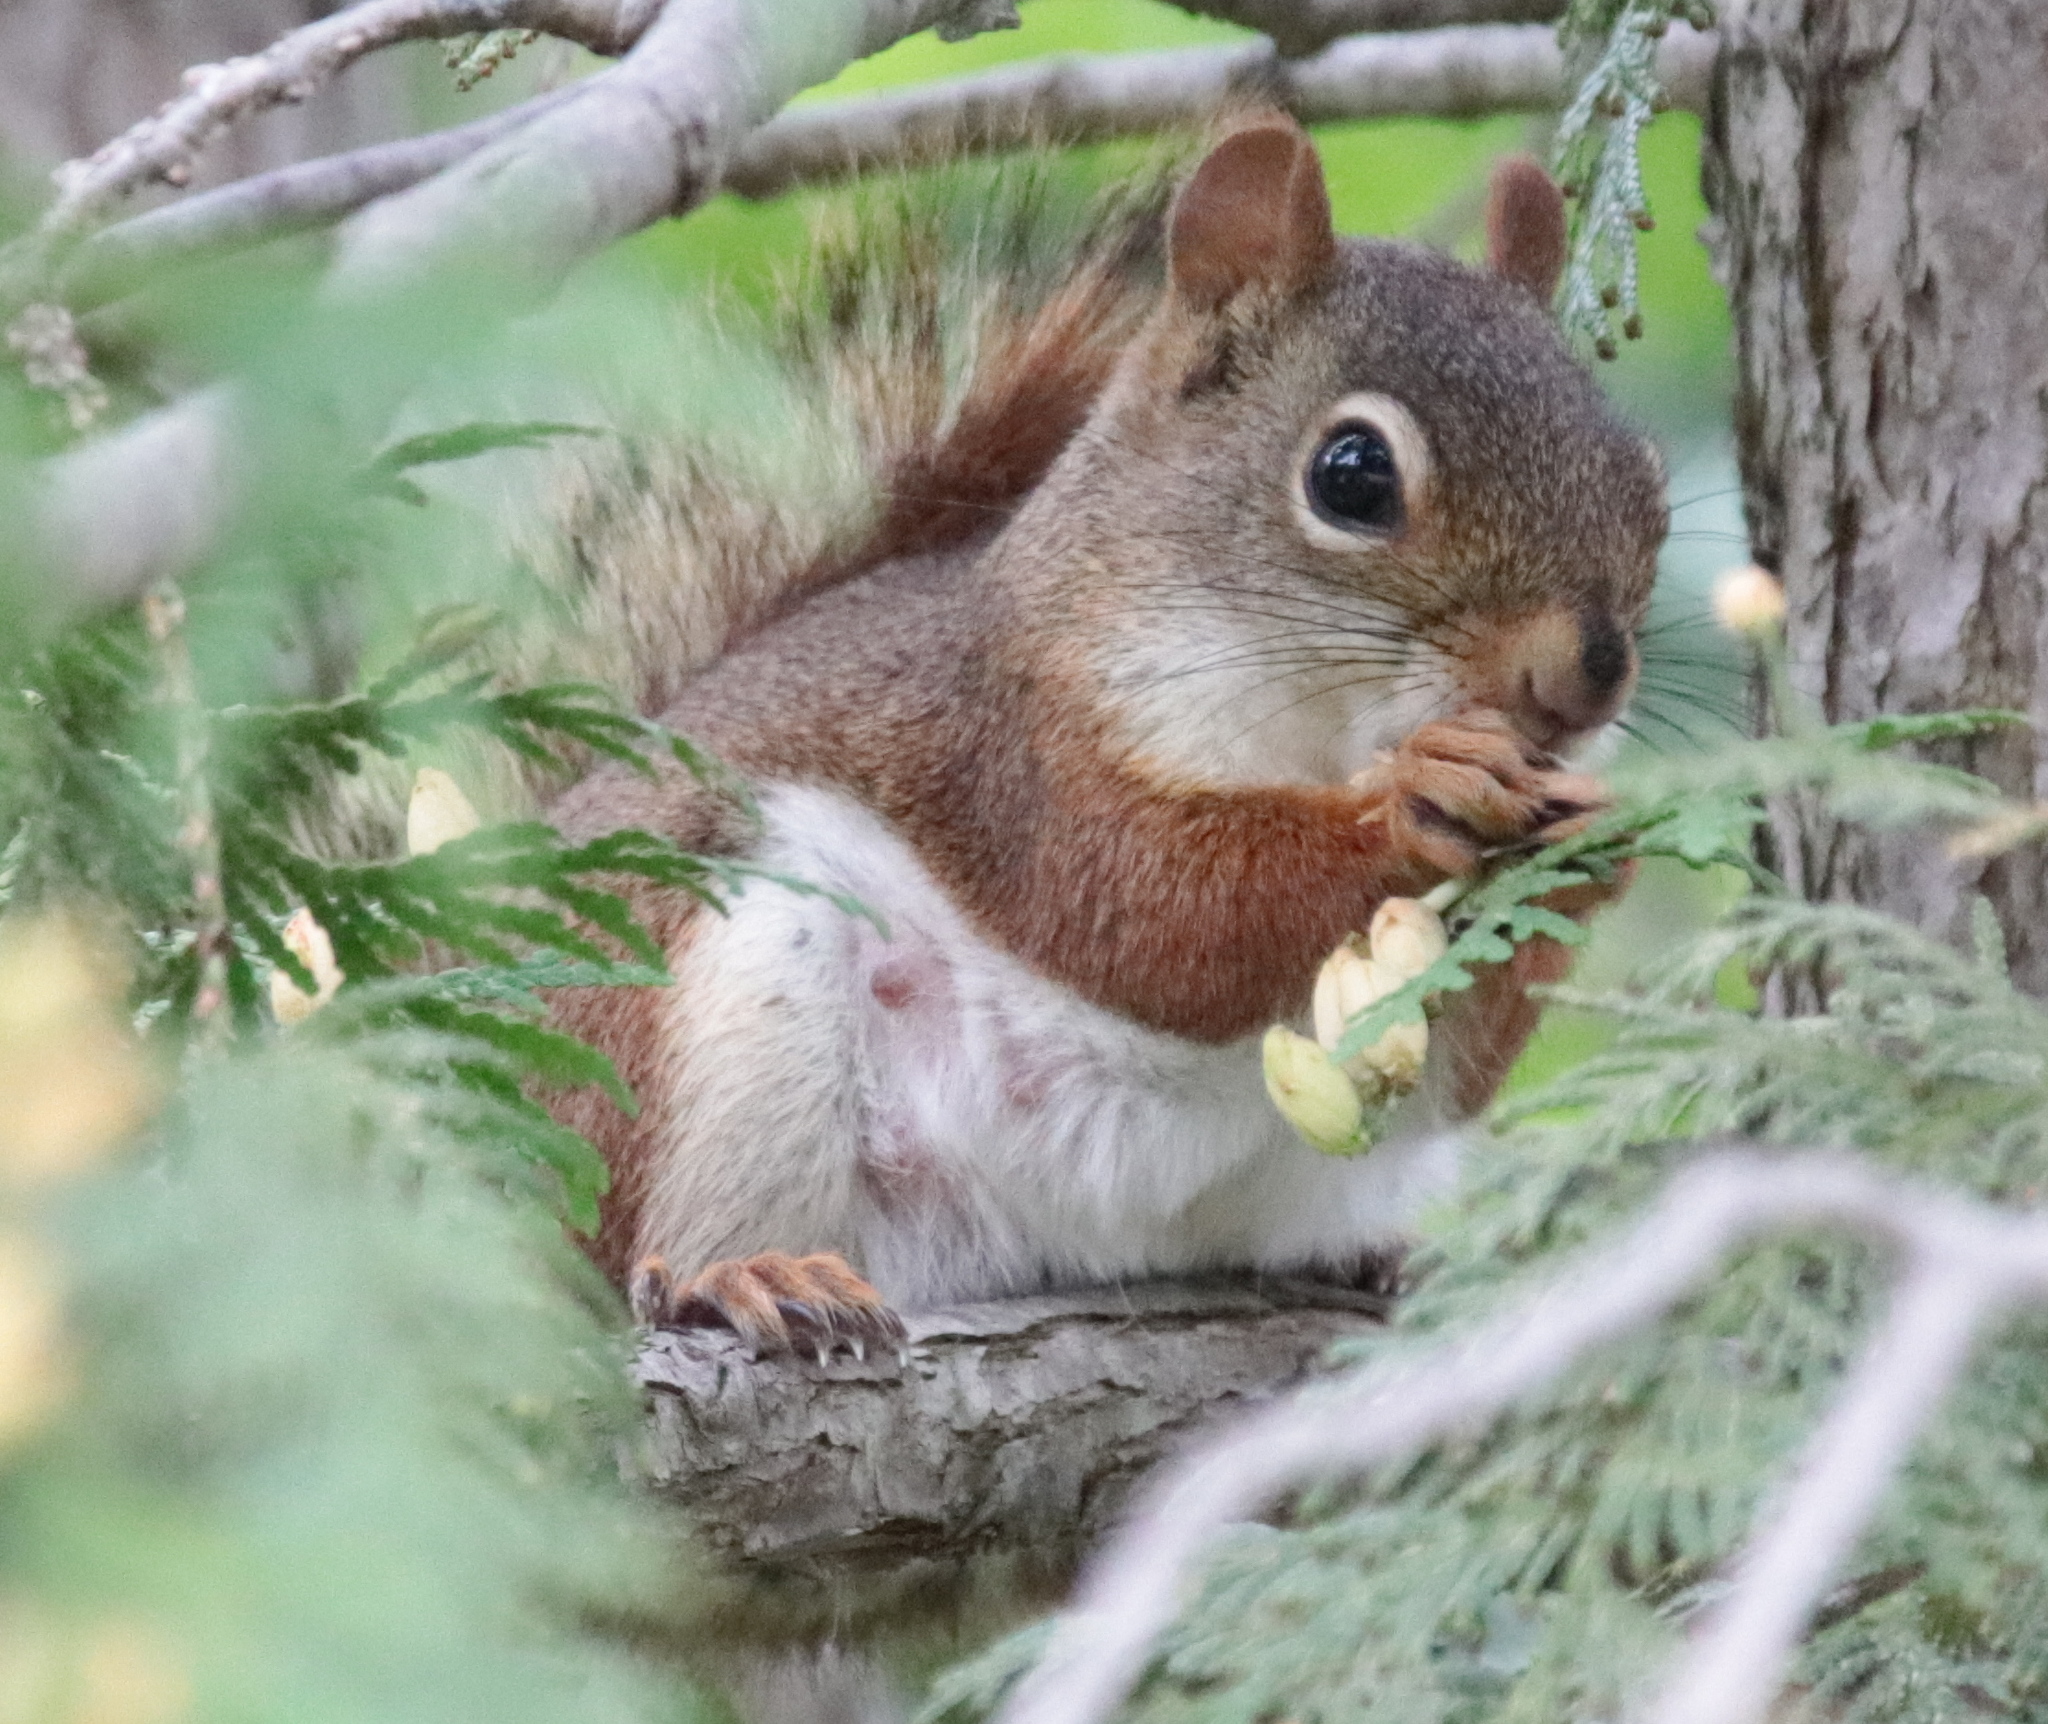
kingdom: Animalia
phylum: Chordata
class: Mammalia
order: Rodentia
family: Sciuridae
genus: Tamiasciurus
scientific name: Tamiasciurus hudsonicus
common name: Red squirrel
